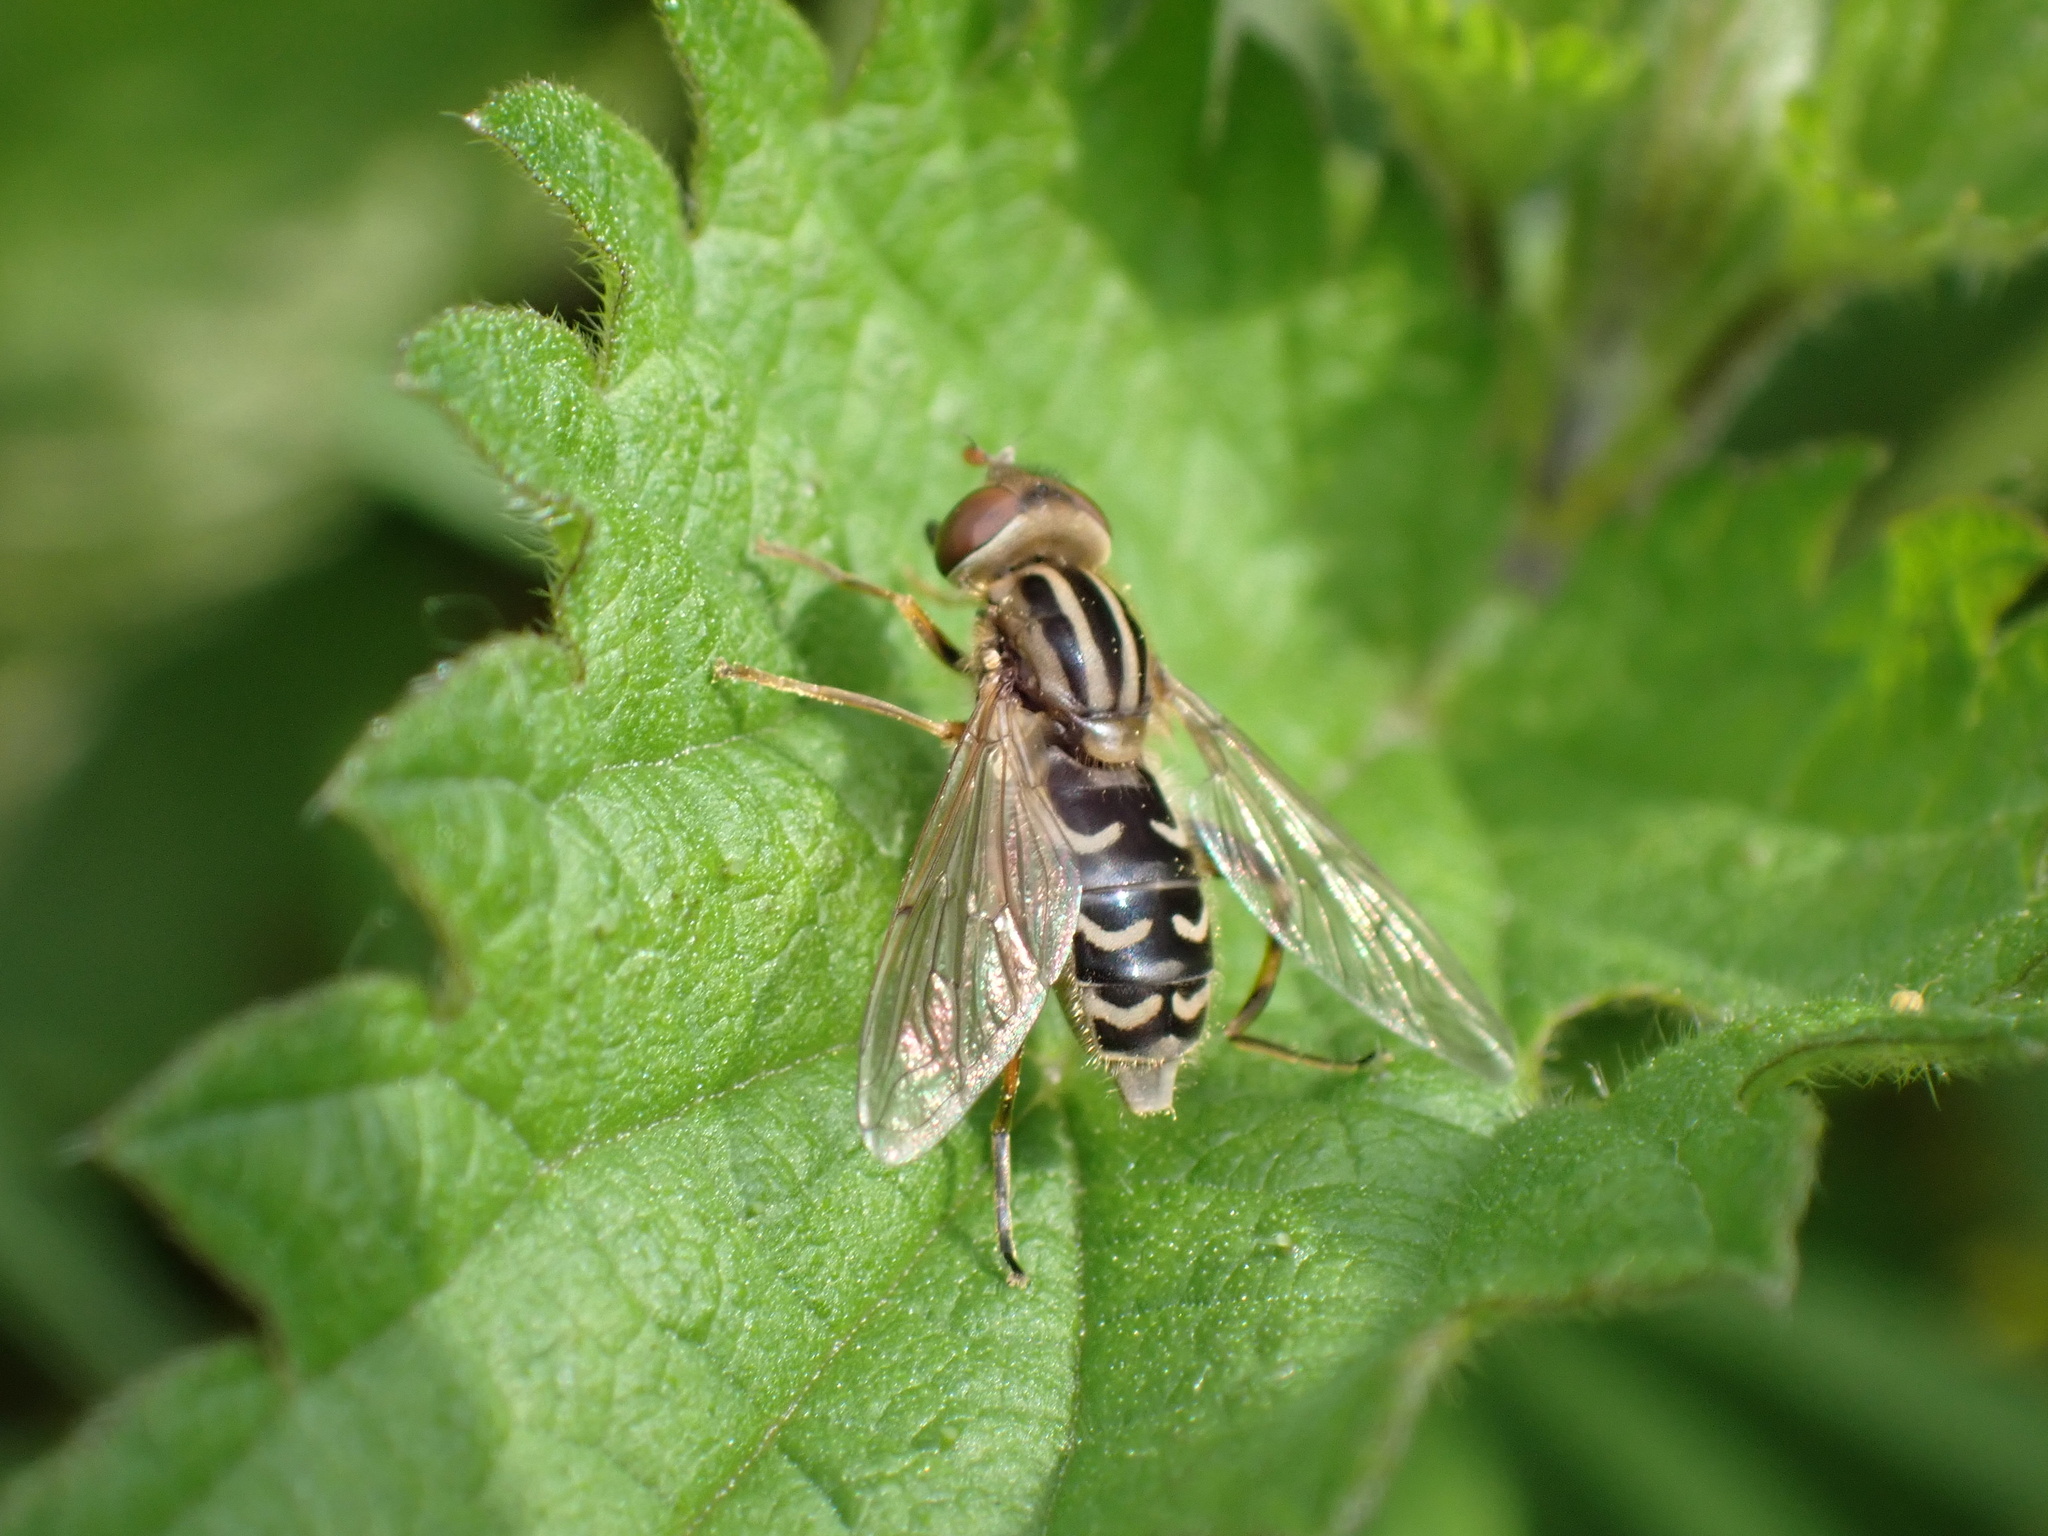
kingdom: Animalia
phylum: Arthropoda
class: Insecta
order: Diptera
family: Syrphidae
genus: Anasimyia
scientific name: Anasimyia interpunctus
